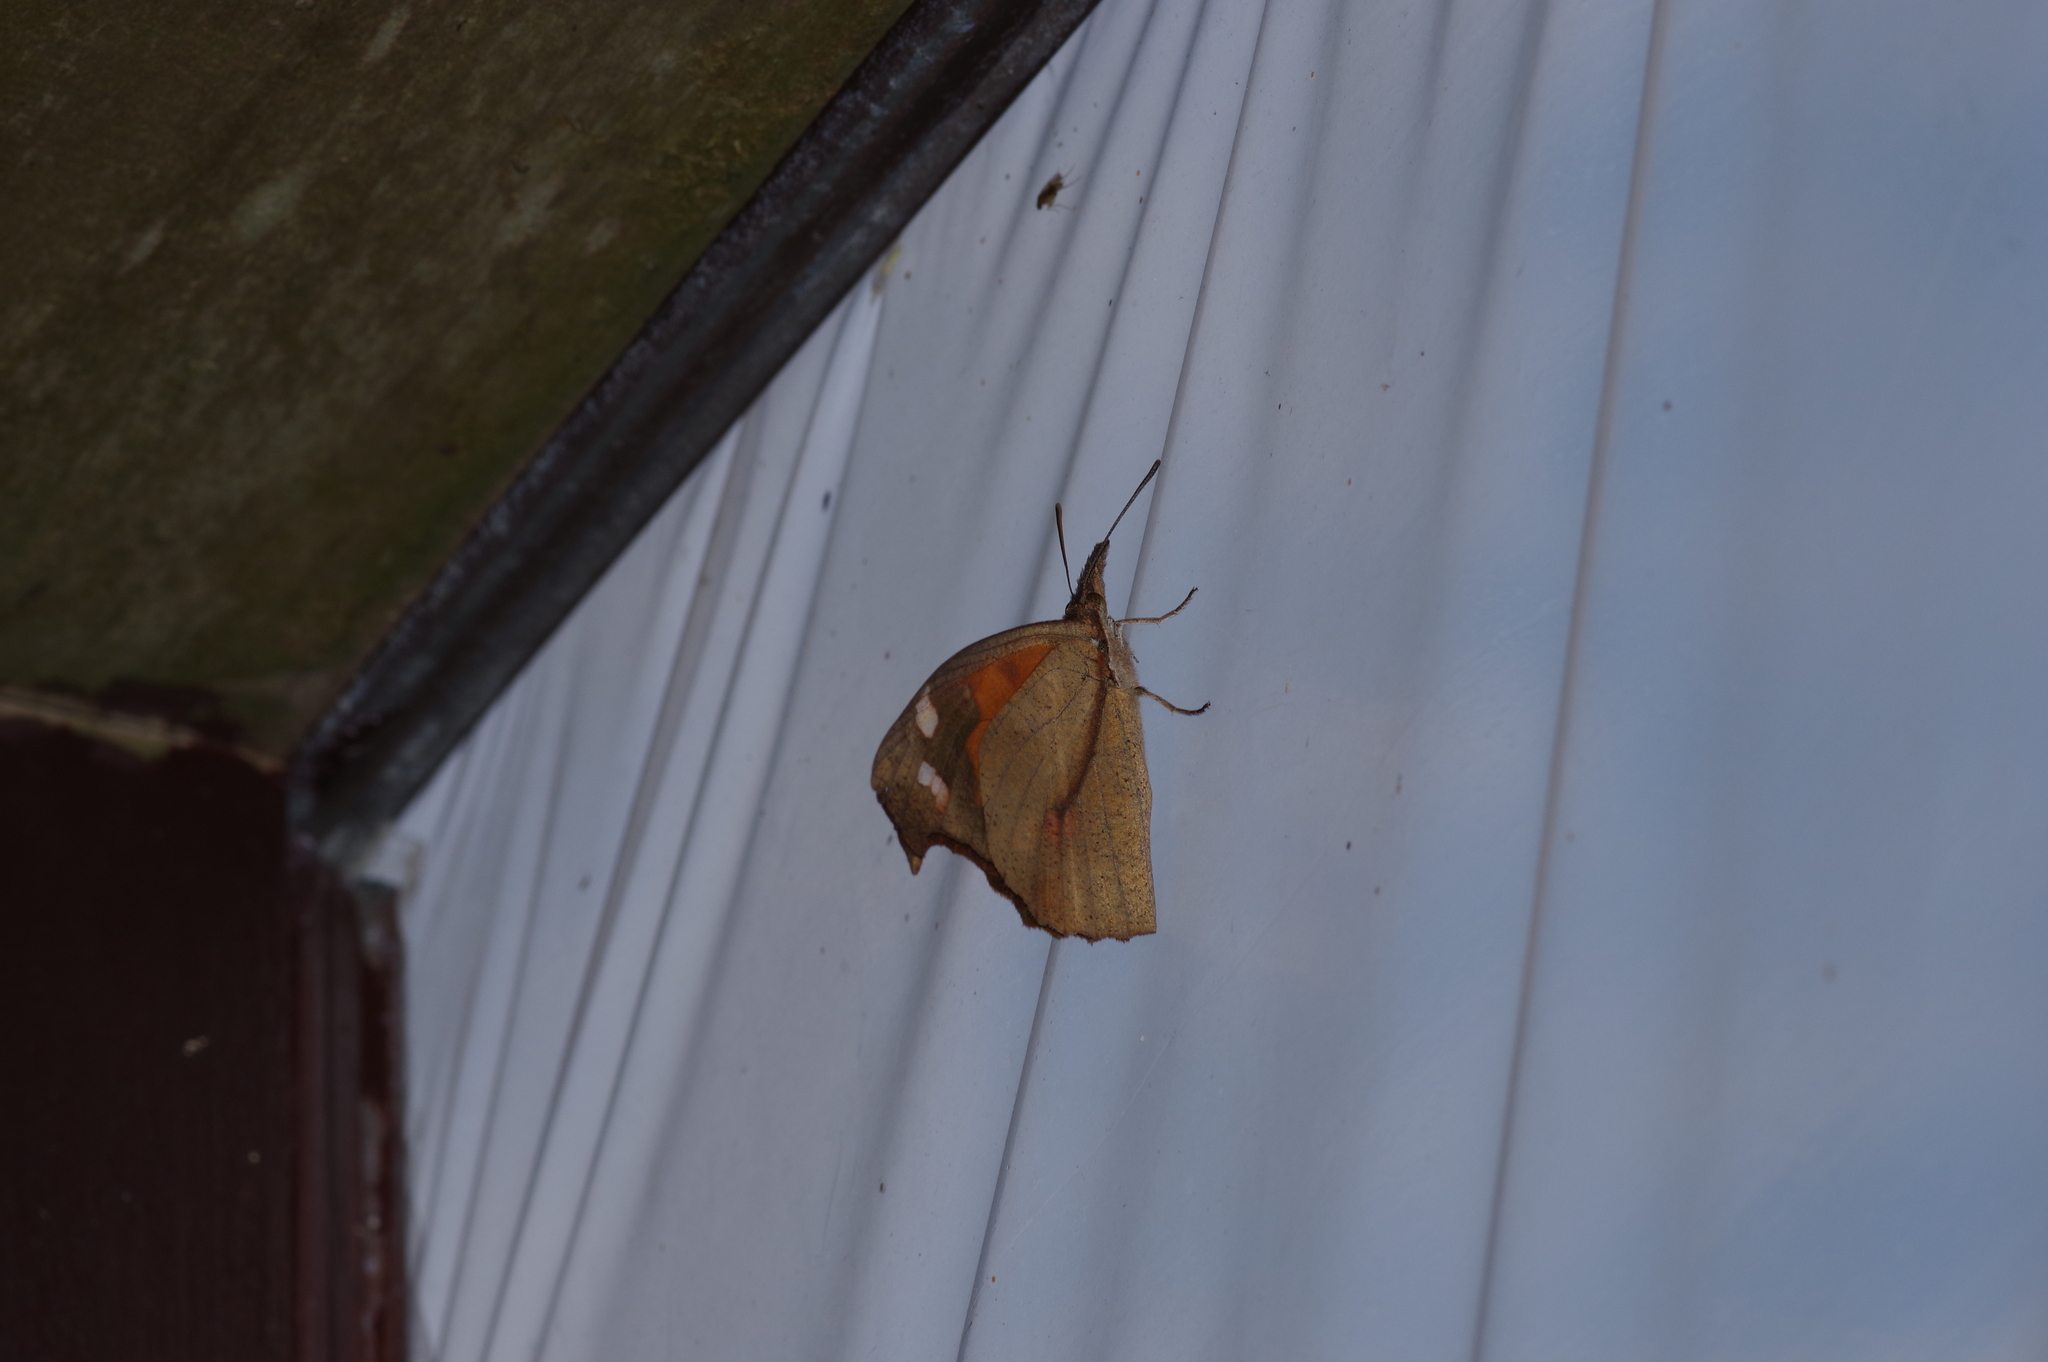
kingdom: Animalia
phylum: Arthropoda
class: Insecta
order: Lepidoptera
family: Nymphalidae
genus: Libythea
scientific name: Libythea lepita
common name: Common beak
